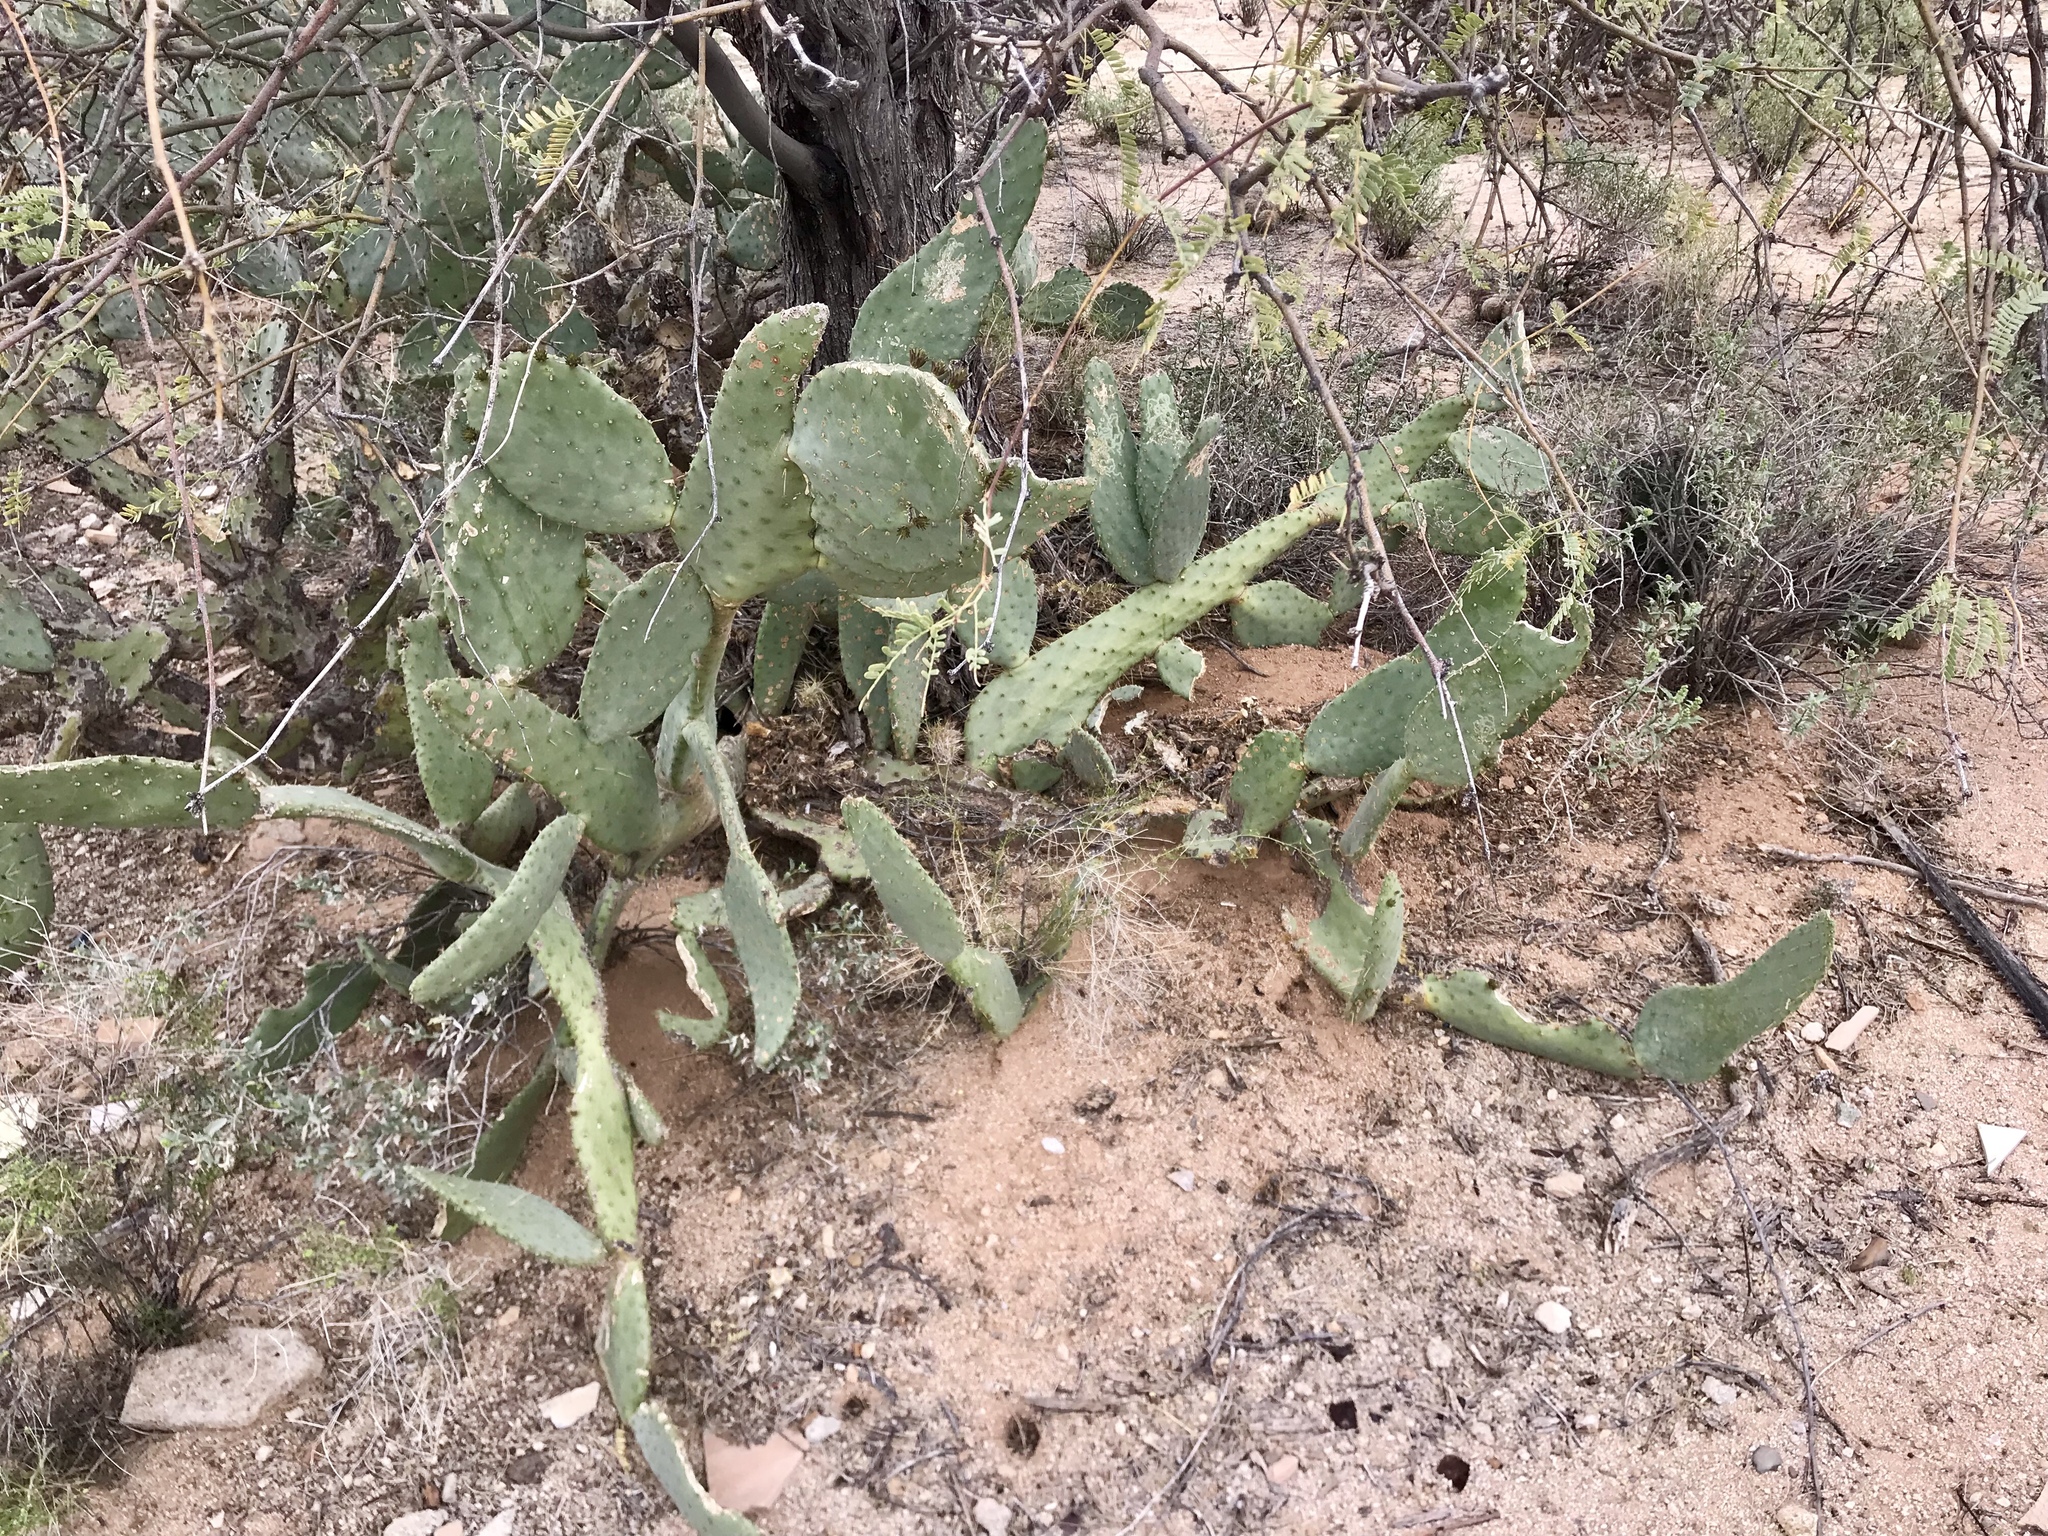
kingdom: Plantae
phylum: Tracheophyta
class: Magnoliopsida
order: Caryophyllales
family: Cactaceae
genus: Opuntia
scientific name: Opuntia engelmannii
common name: Cactus-apple
